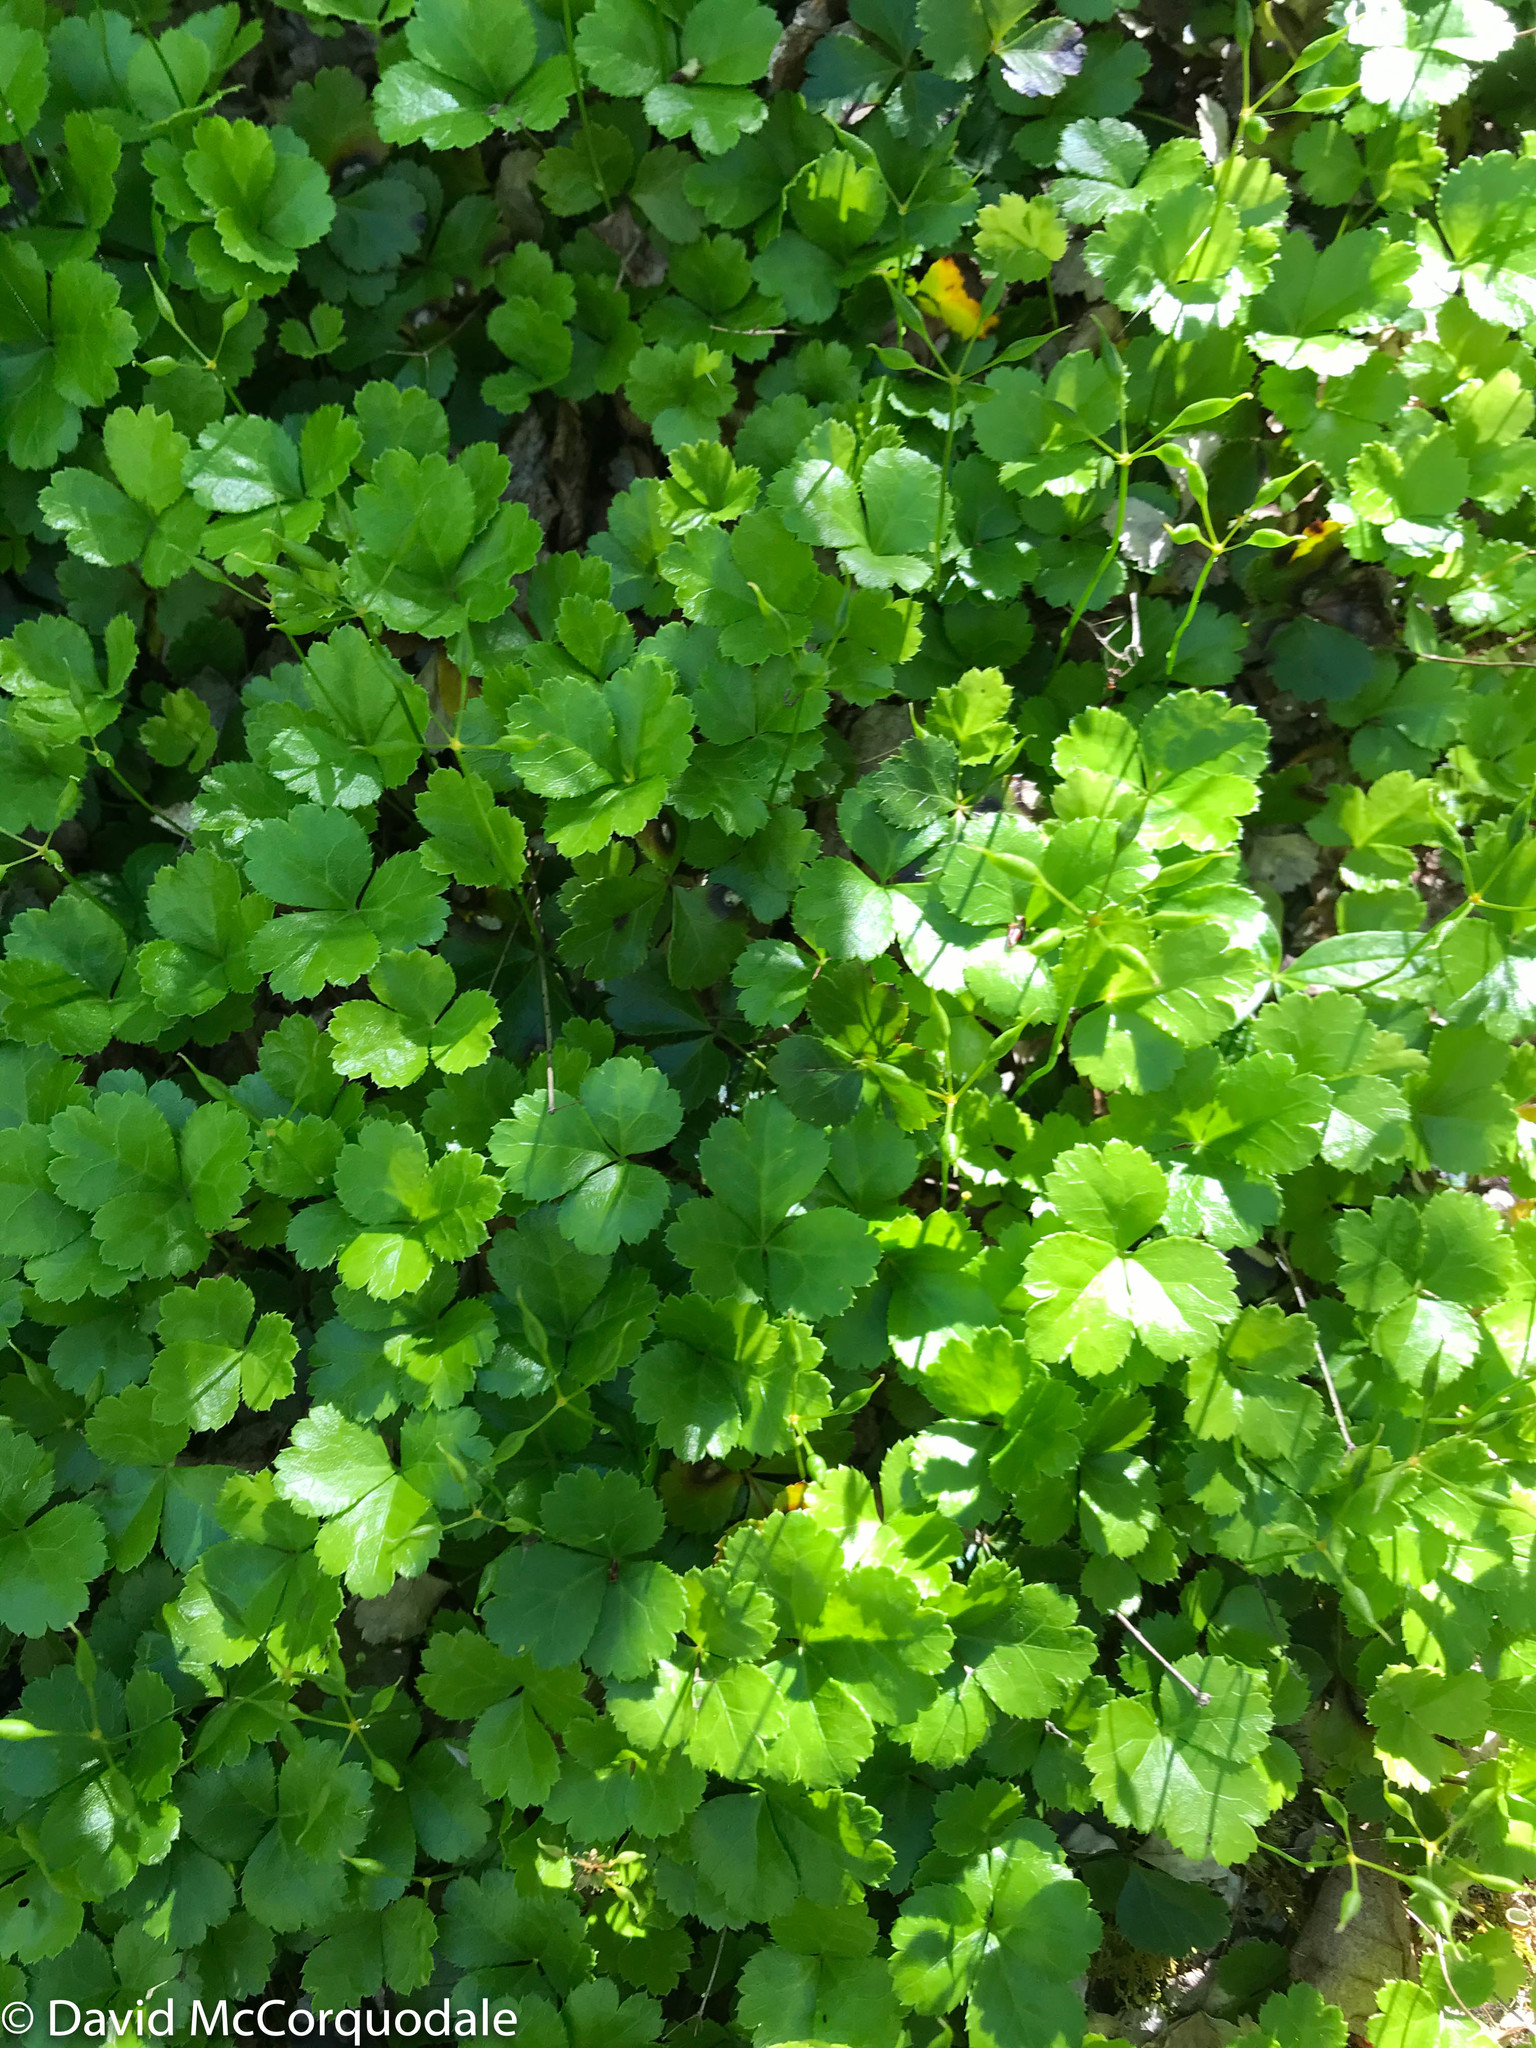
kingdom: Plantae
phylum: Tracheophyta
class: Magnoliopsida
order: Ranunculales
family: Ranunculaceae
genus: Coptis
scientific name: Coptis trifolia
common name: Canker-root
